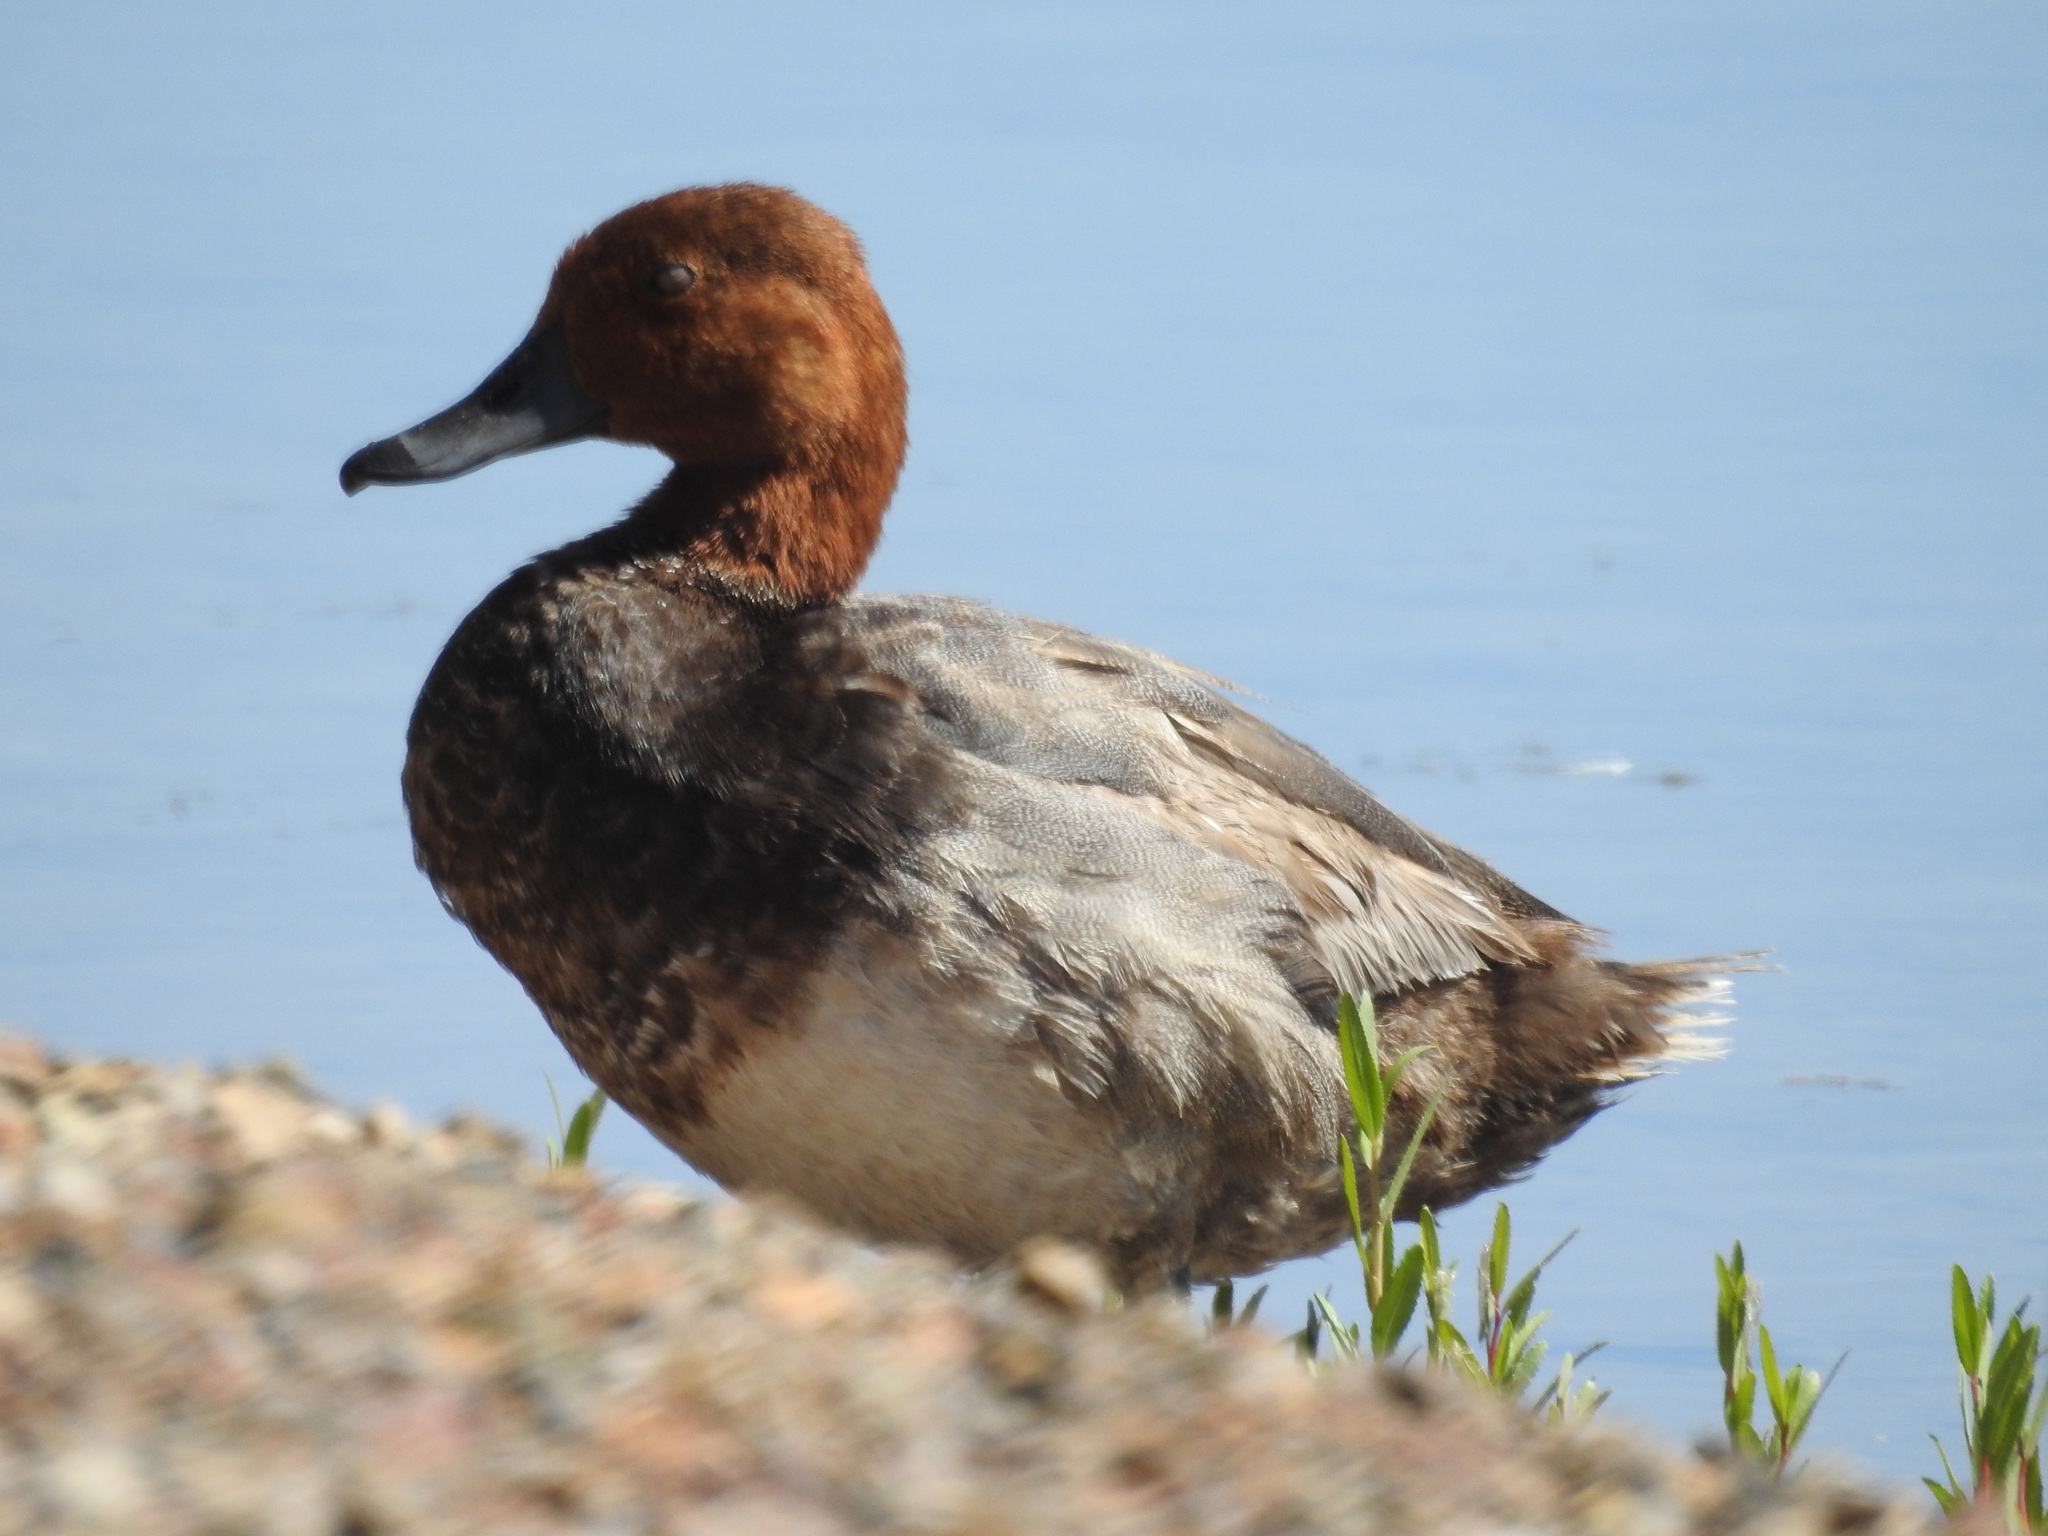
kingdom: Animalia
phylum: Chordata
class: Aves
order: Anseriformes
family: Anatidae
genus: Aythya
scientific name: Aythya americana
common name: Redhead
